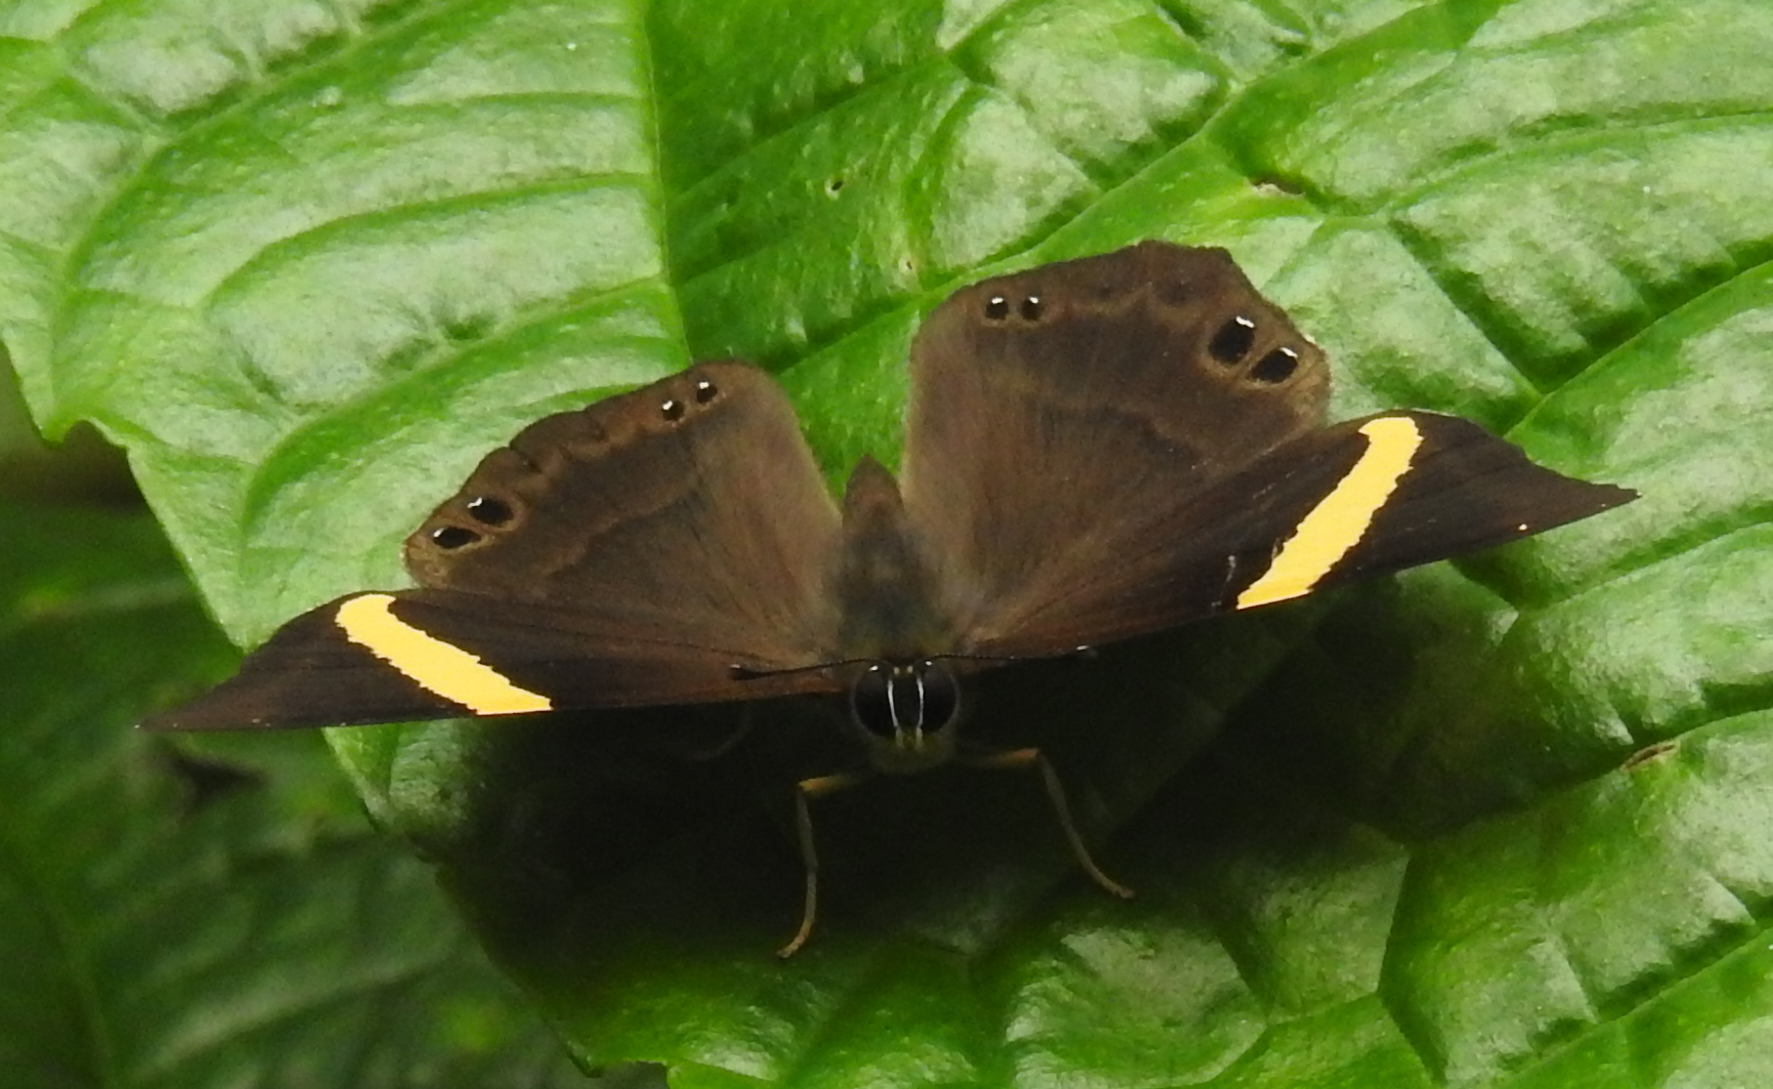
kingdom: Animalia
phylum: Arthropoda
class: Insecta
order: Lepidoptera
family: Lycaenidae
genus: Abisara
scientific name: Abisara fylla
